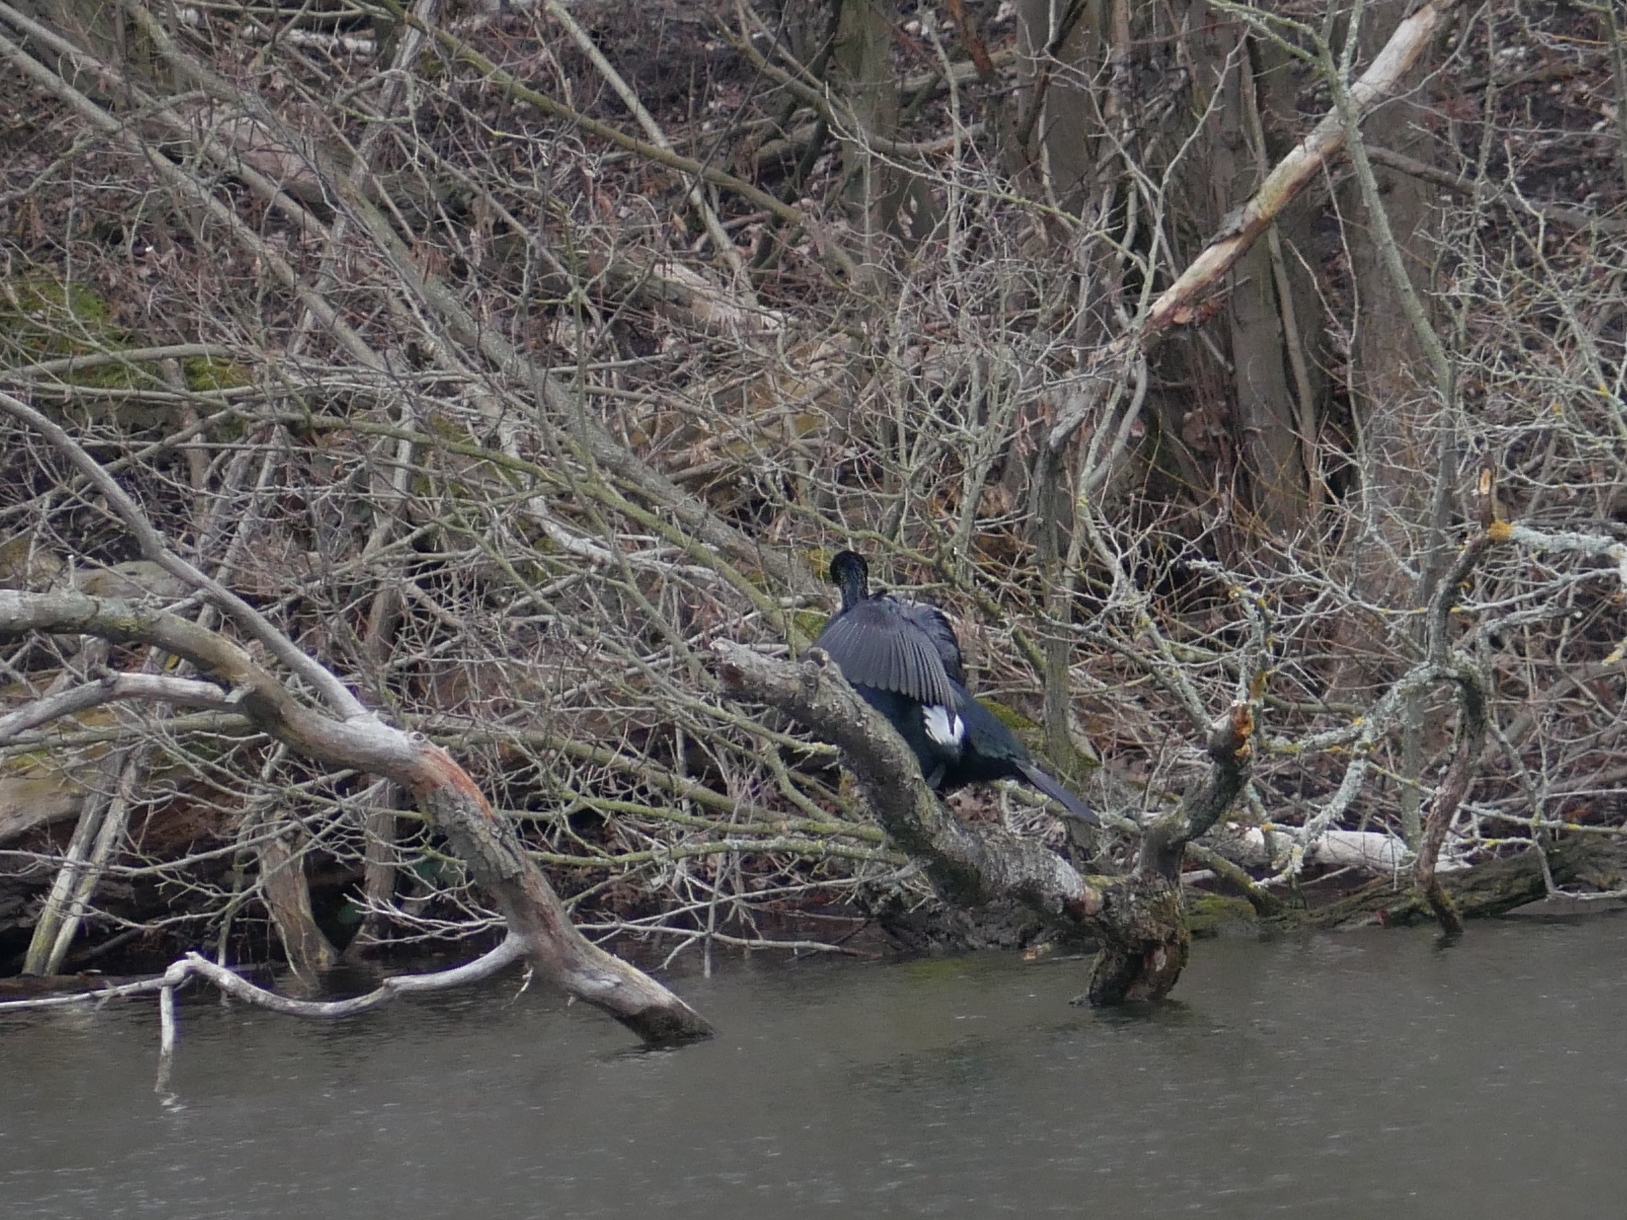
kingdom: Animalia
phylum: Chordata
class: Aves
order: Suliformes
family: Phalacrocoracidae
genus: Phalacrocorax
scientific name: Phalacrocorax carbo
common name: Great cormorant
